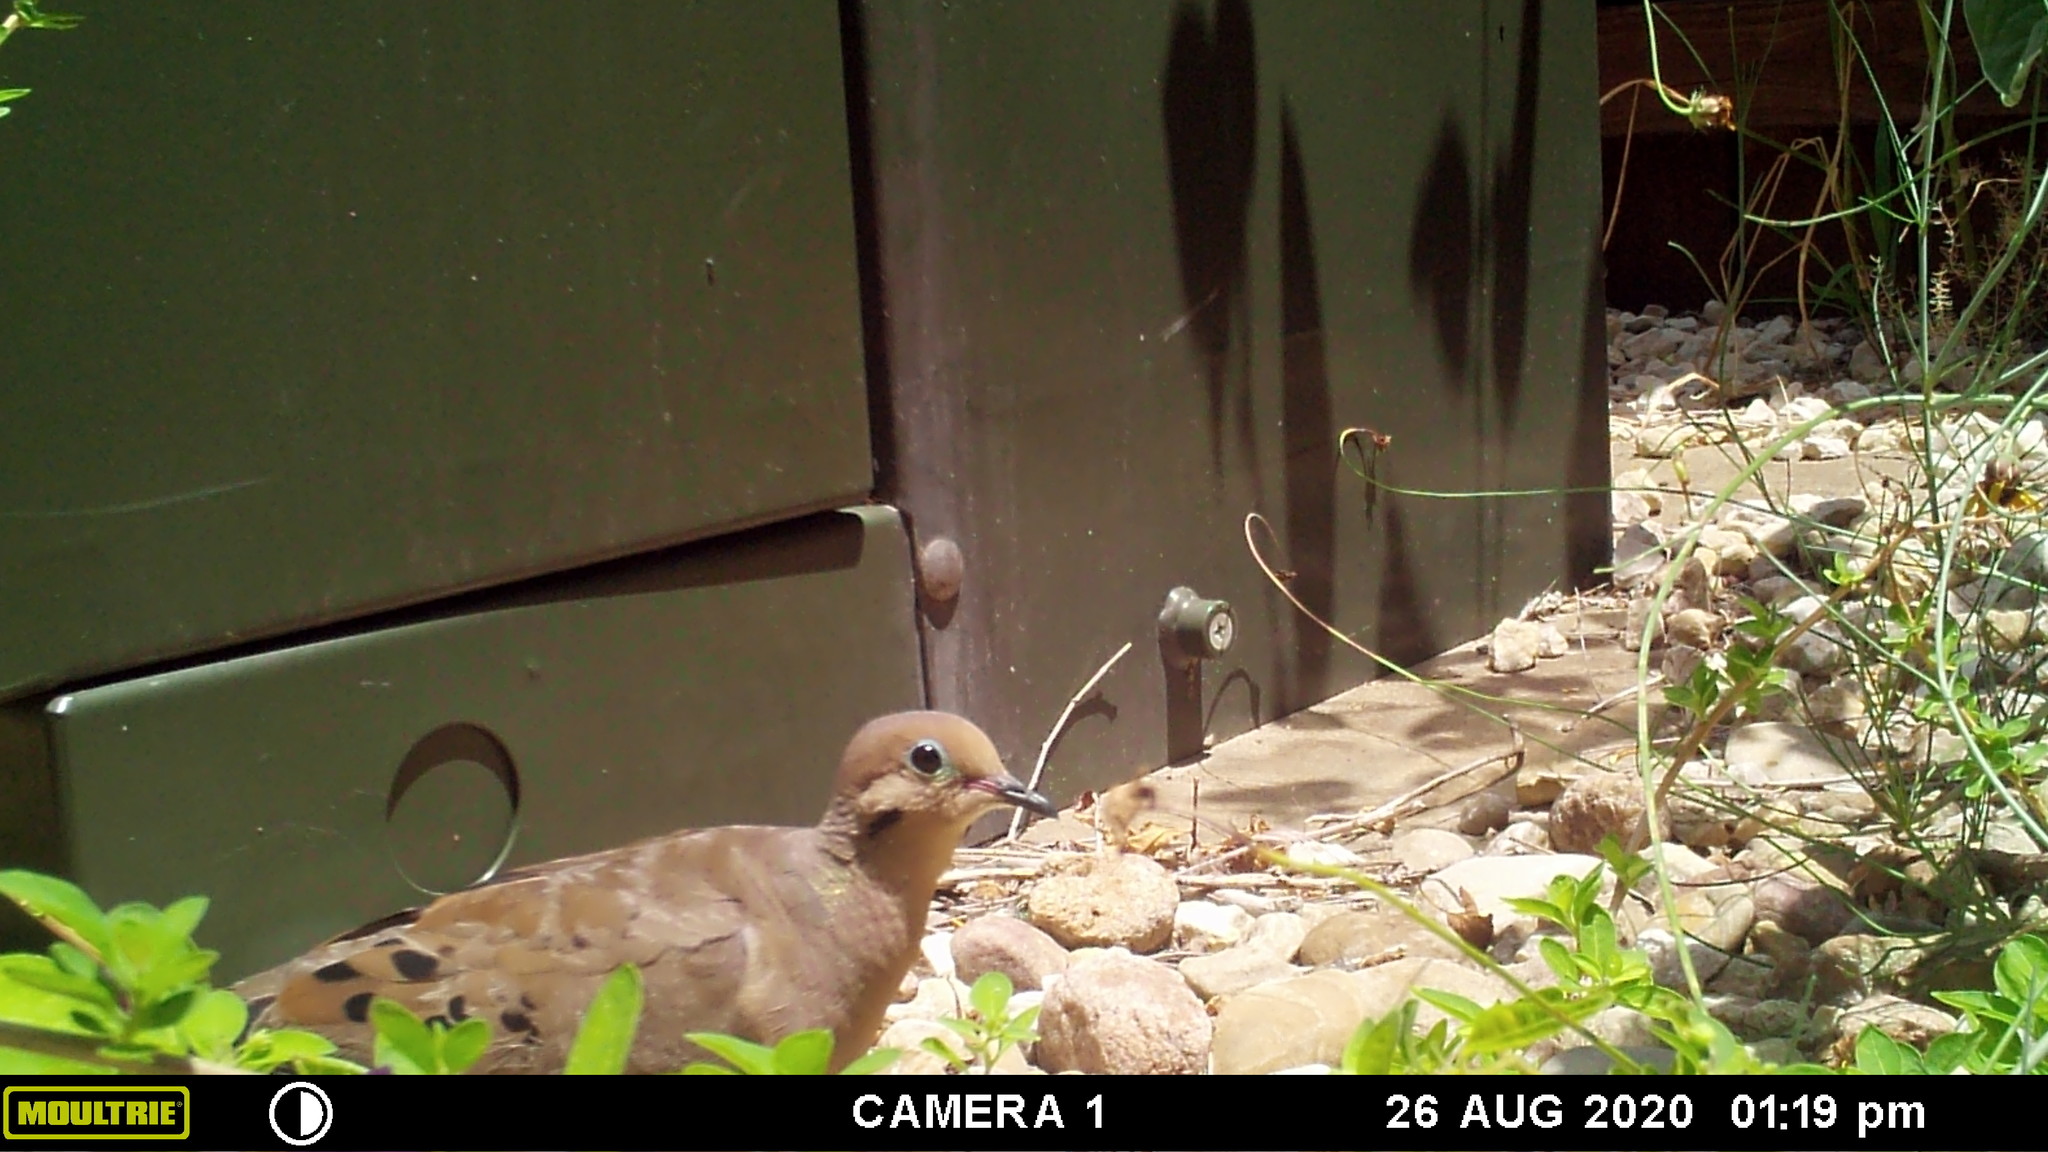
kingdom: Animalia
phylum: Chordata
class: Aves
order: Columbiformes
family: Columbidae
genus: Zenaida
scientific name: Zenaida macroura
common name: Mourning dove
